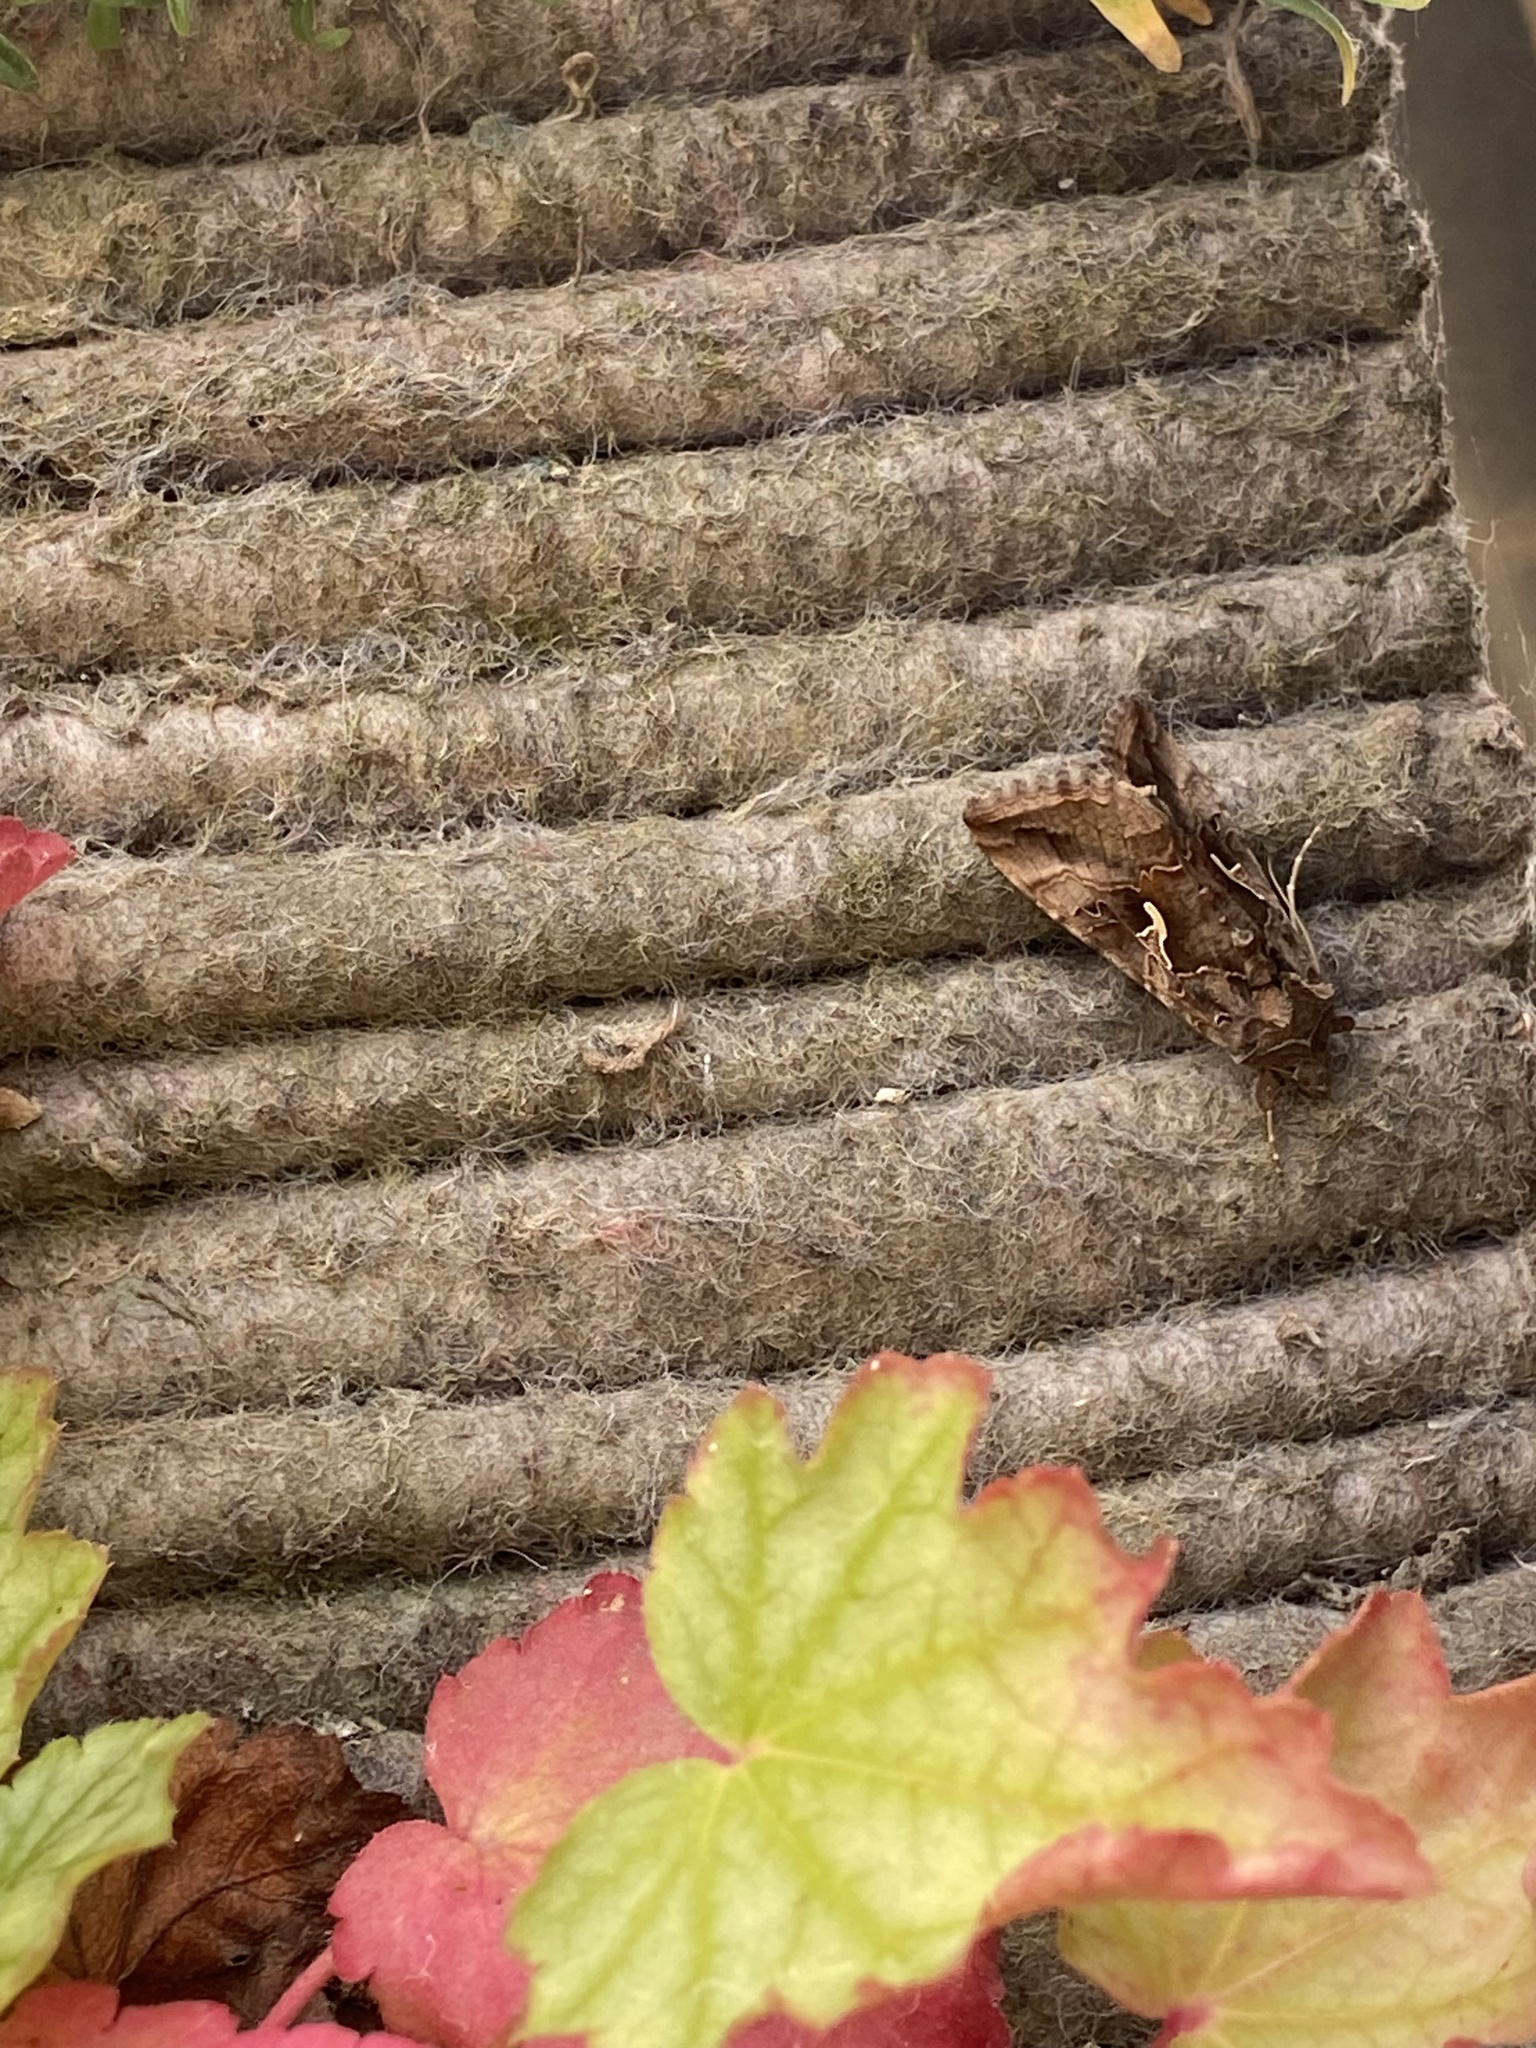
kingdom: Animalia
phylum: Arthropoda
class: Insecta
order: Lepidoptera
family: Noctuidae
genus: Autographa
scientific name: Autographa gamma
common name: Silver y
